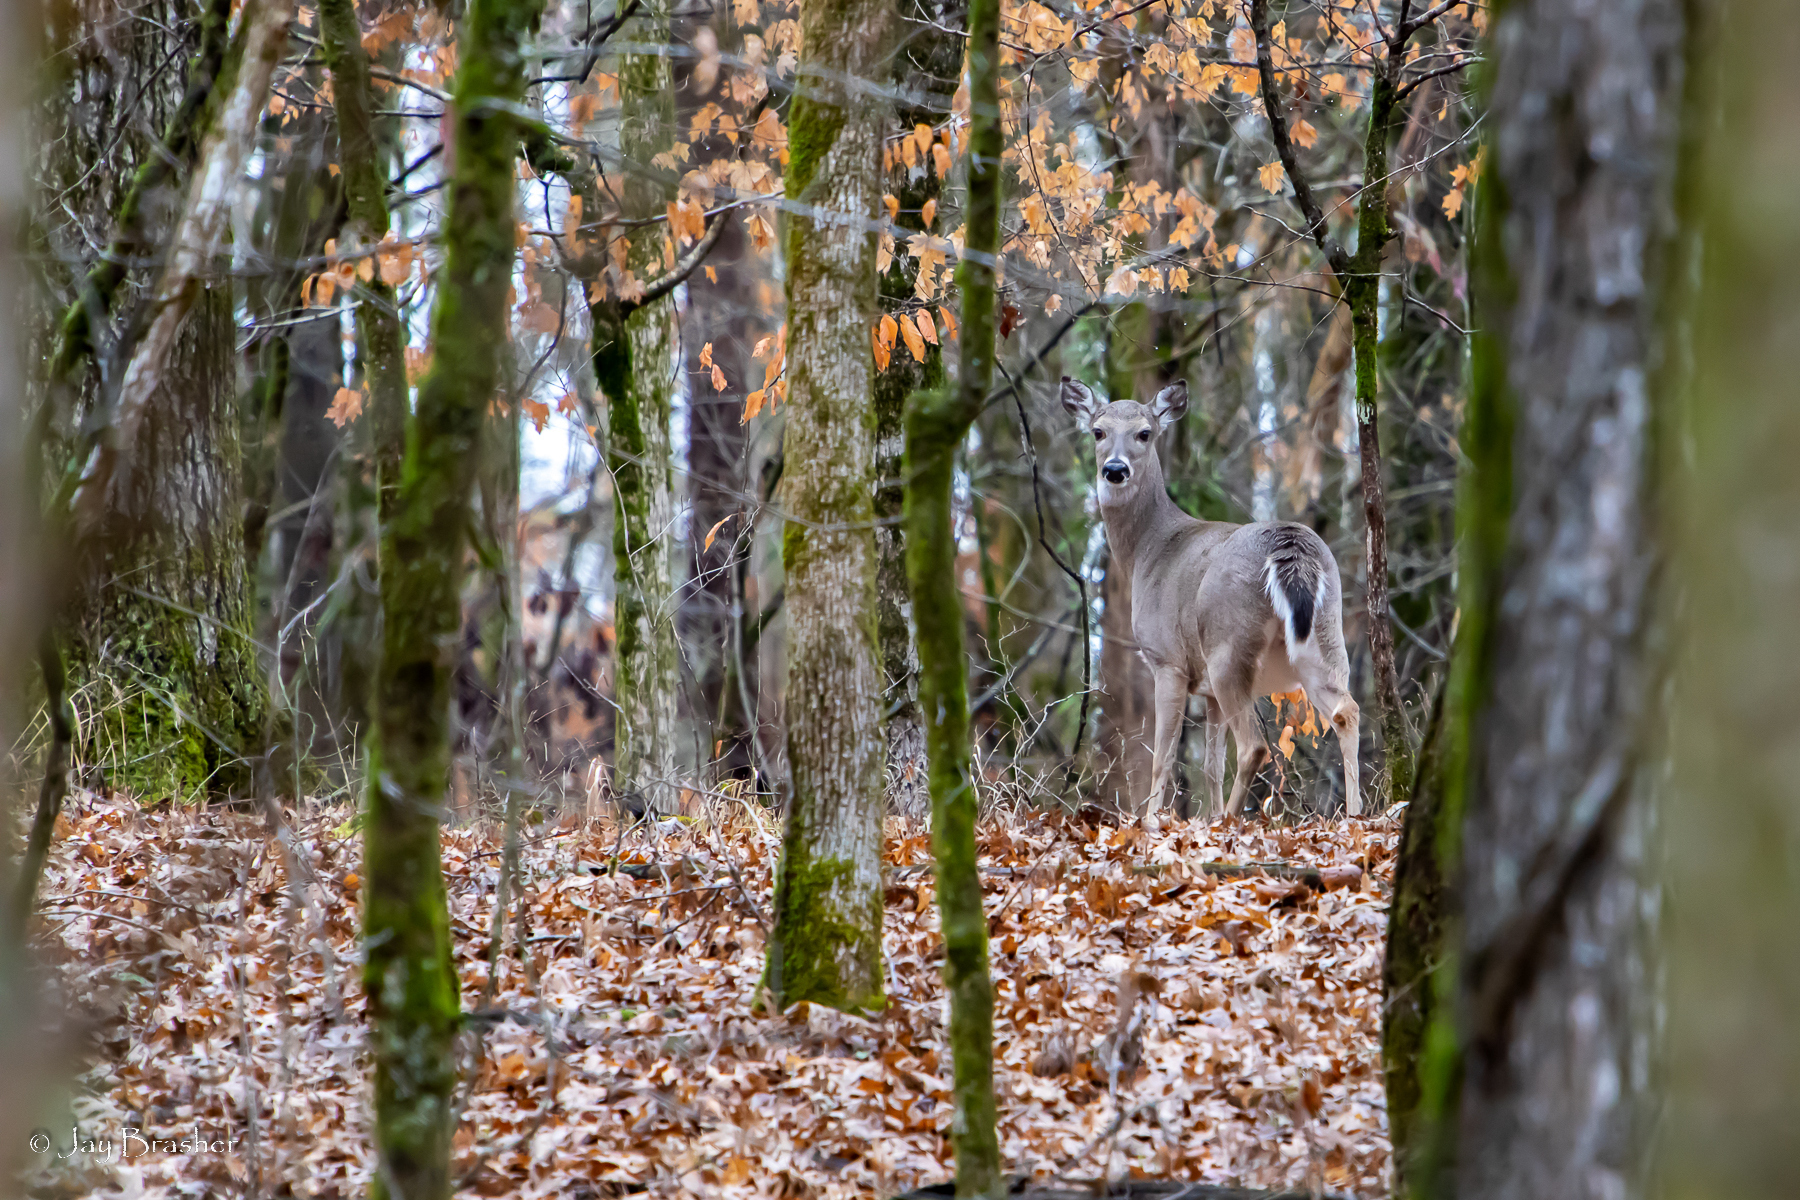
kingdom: Animalia
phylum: Chordata
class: Mammalia
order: Artiodactyla
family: Cervidae
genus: Odocoileus
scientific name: Odocoileus virginianus
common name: White-tailed deer
